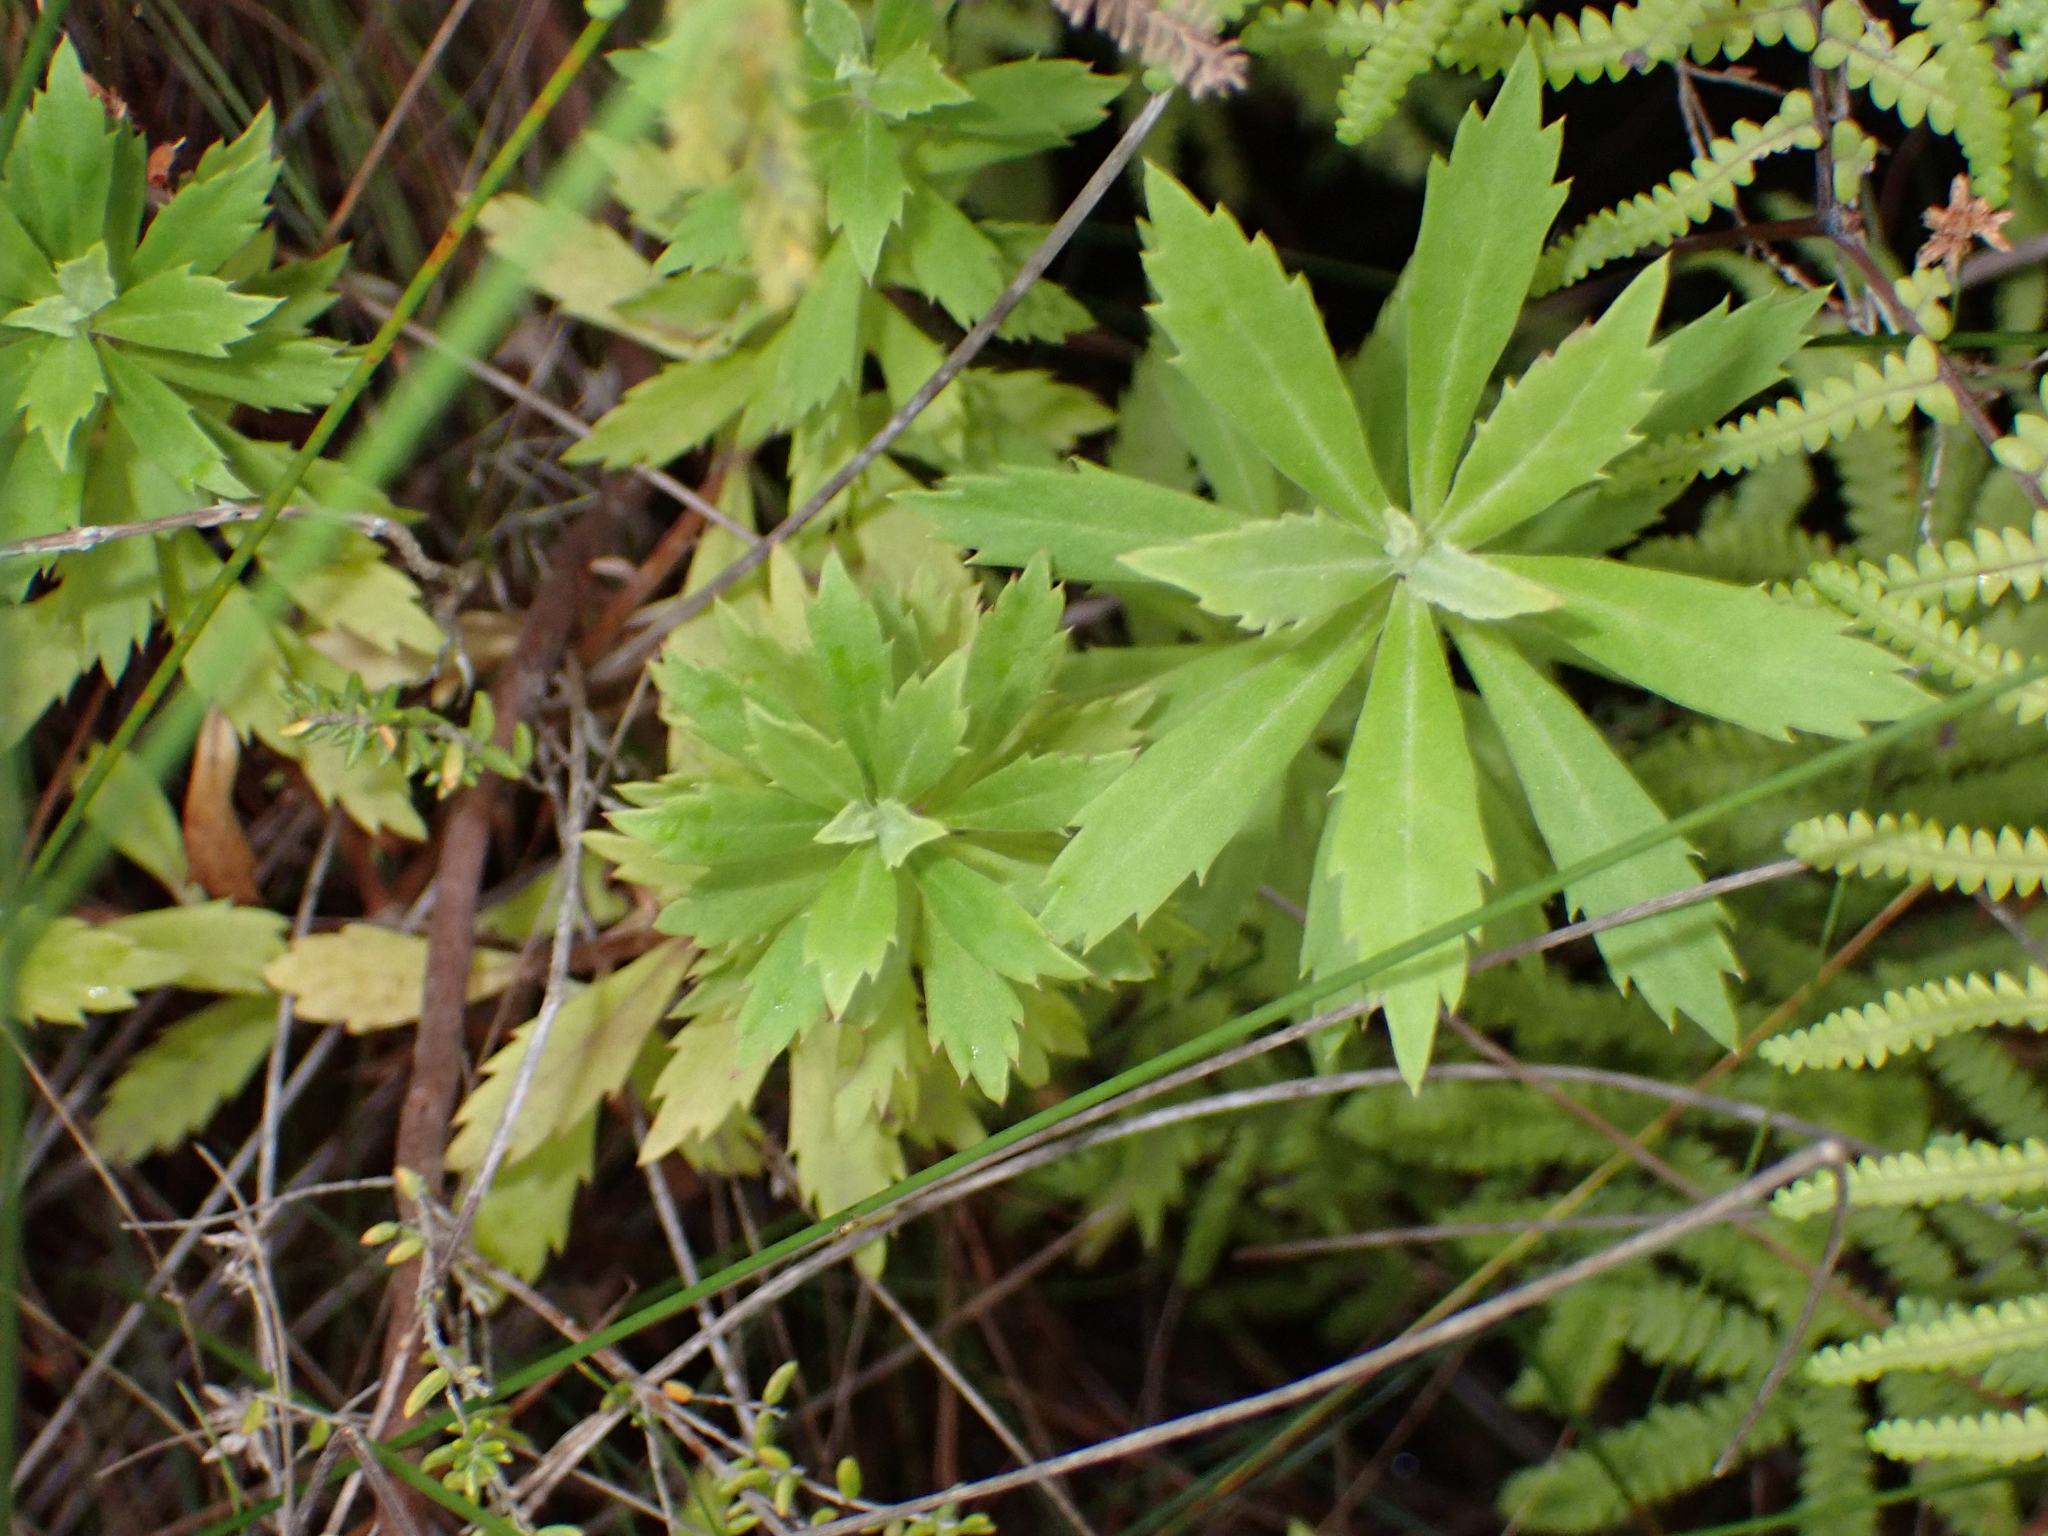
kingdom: Plantae
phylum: Tracheophyta
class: Magnoliopsida
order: Asterales
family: Asteraceae
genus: Osmitopsis
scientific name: Osmitopsis osmitoides
